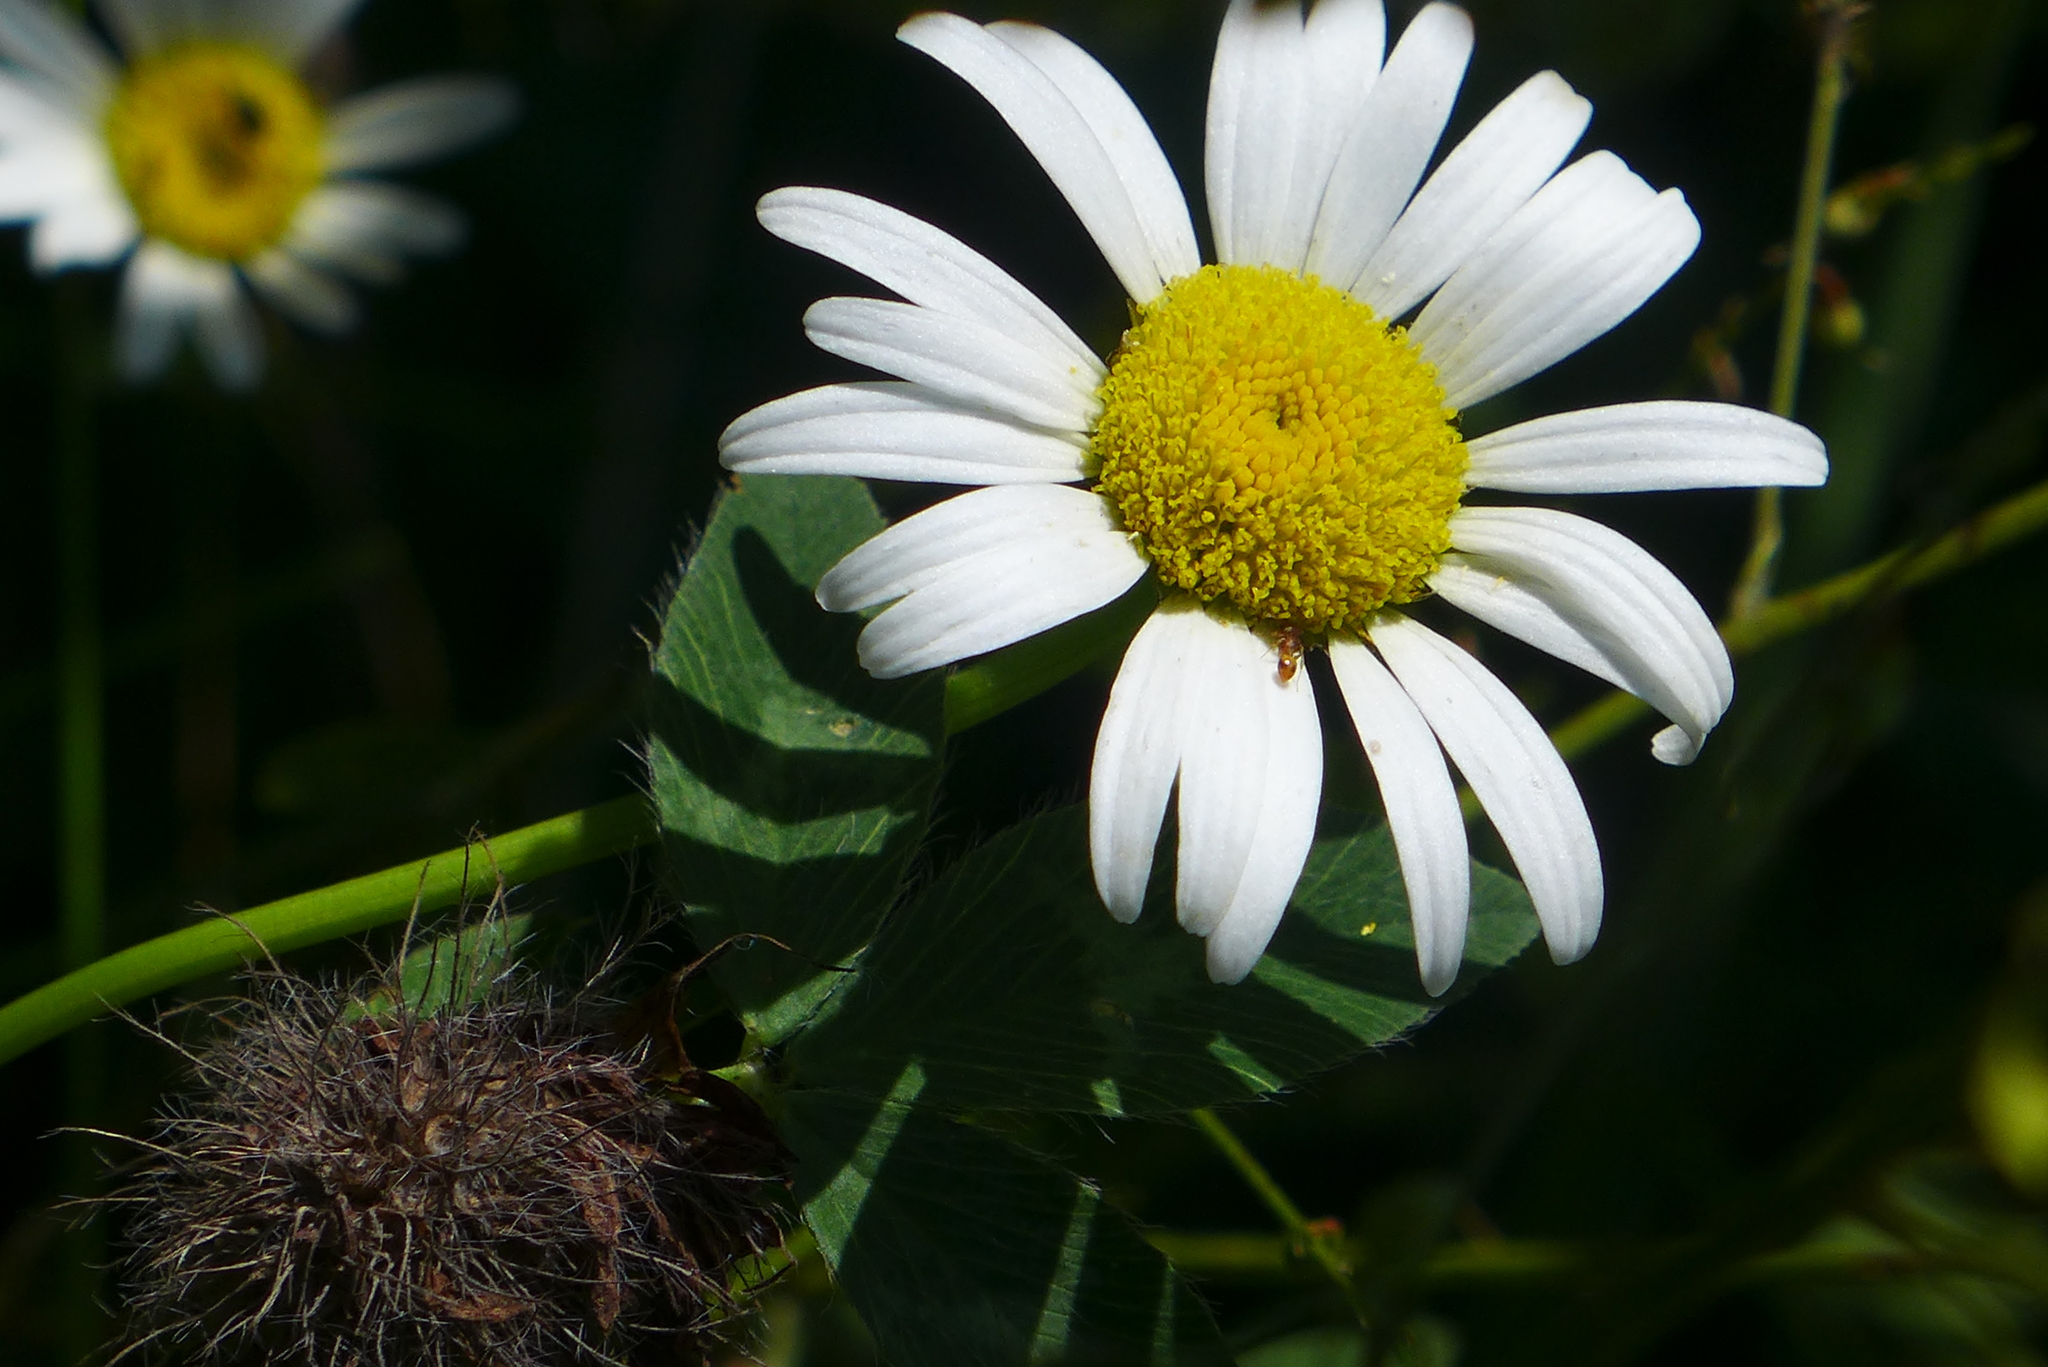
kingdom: Plantae
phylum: Tracheophyta
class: Magnoliopsida
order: Asterales
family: Asteraceae
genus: Leucanthemum
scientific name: Leucanthemum vulgare
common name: Oxeye daisy
